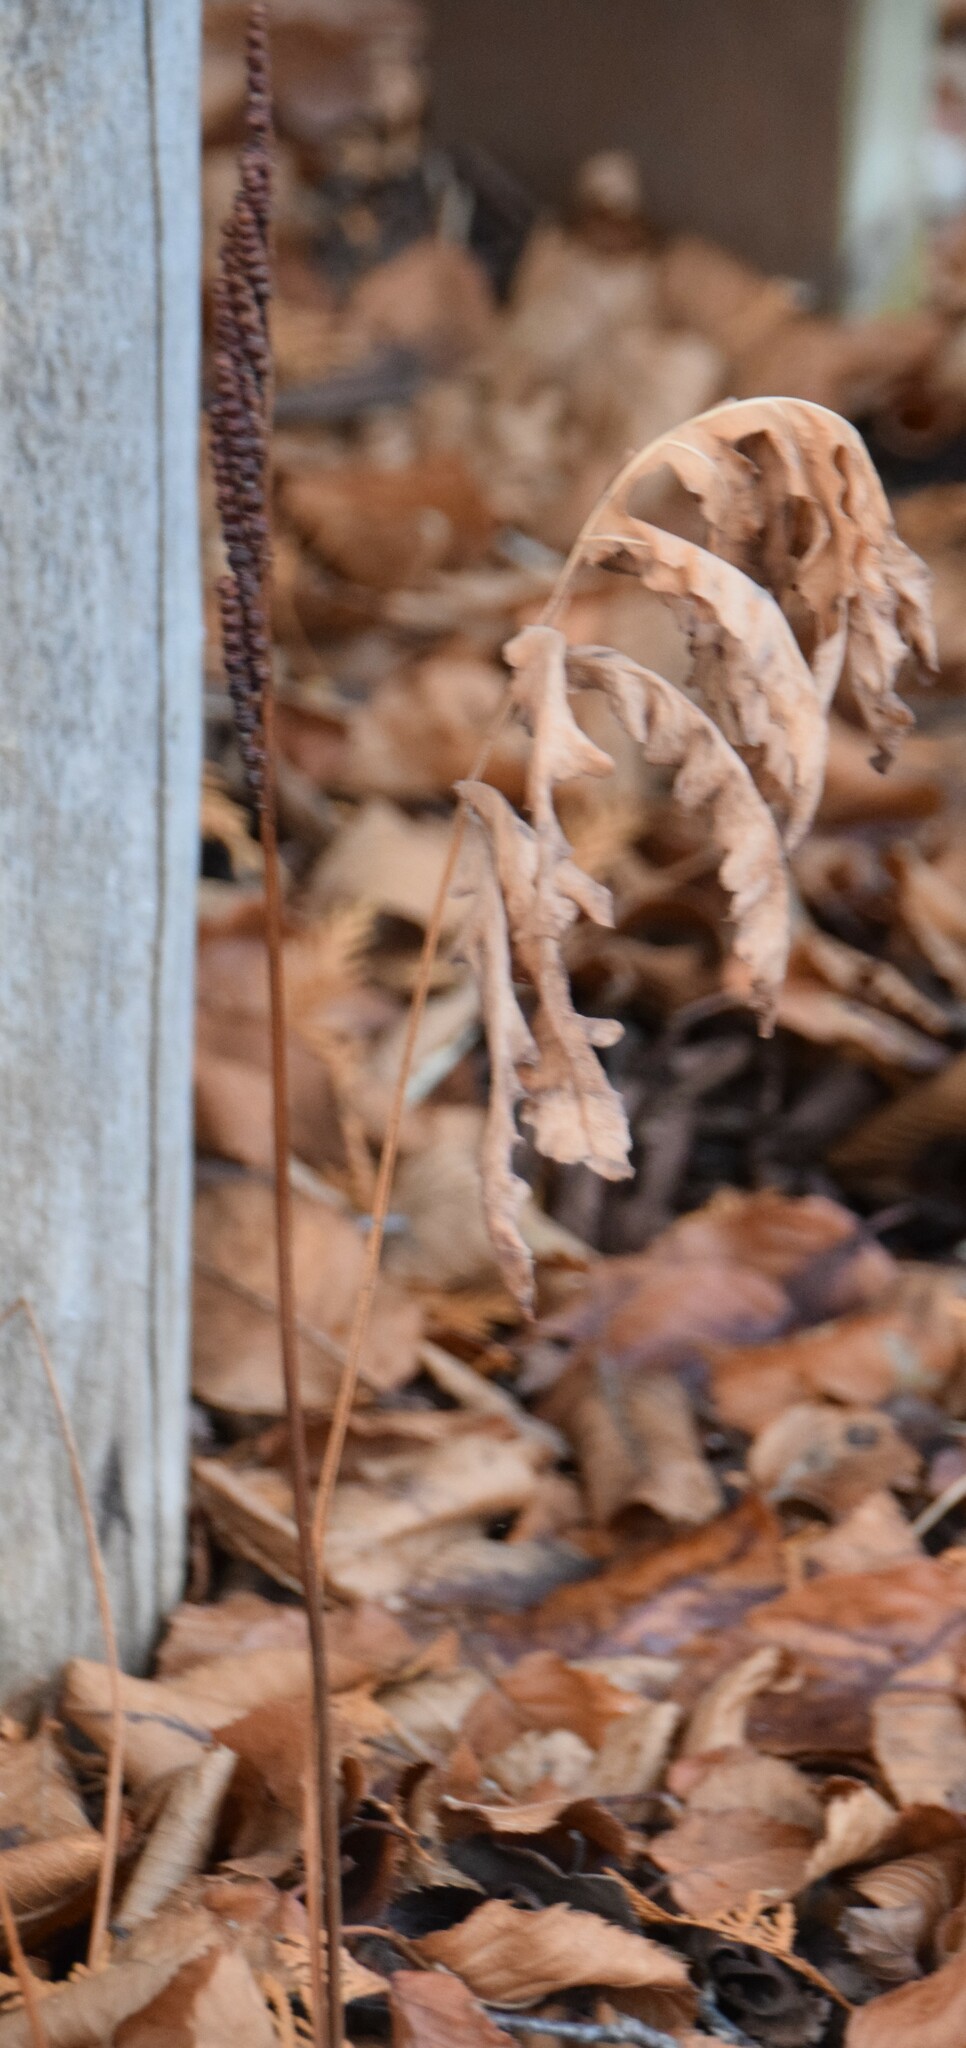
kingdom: Plantae
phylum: Tracheophyta
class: Polypodiopsida
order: Polypodiales
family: Onocleaceae
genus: Onoclea
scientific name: Onoclea sensibilis
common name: Sensitive fern
